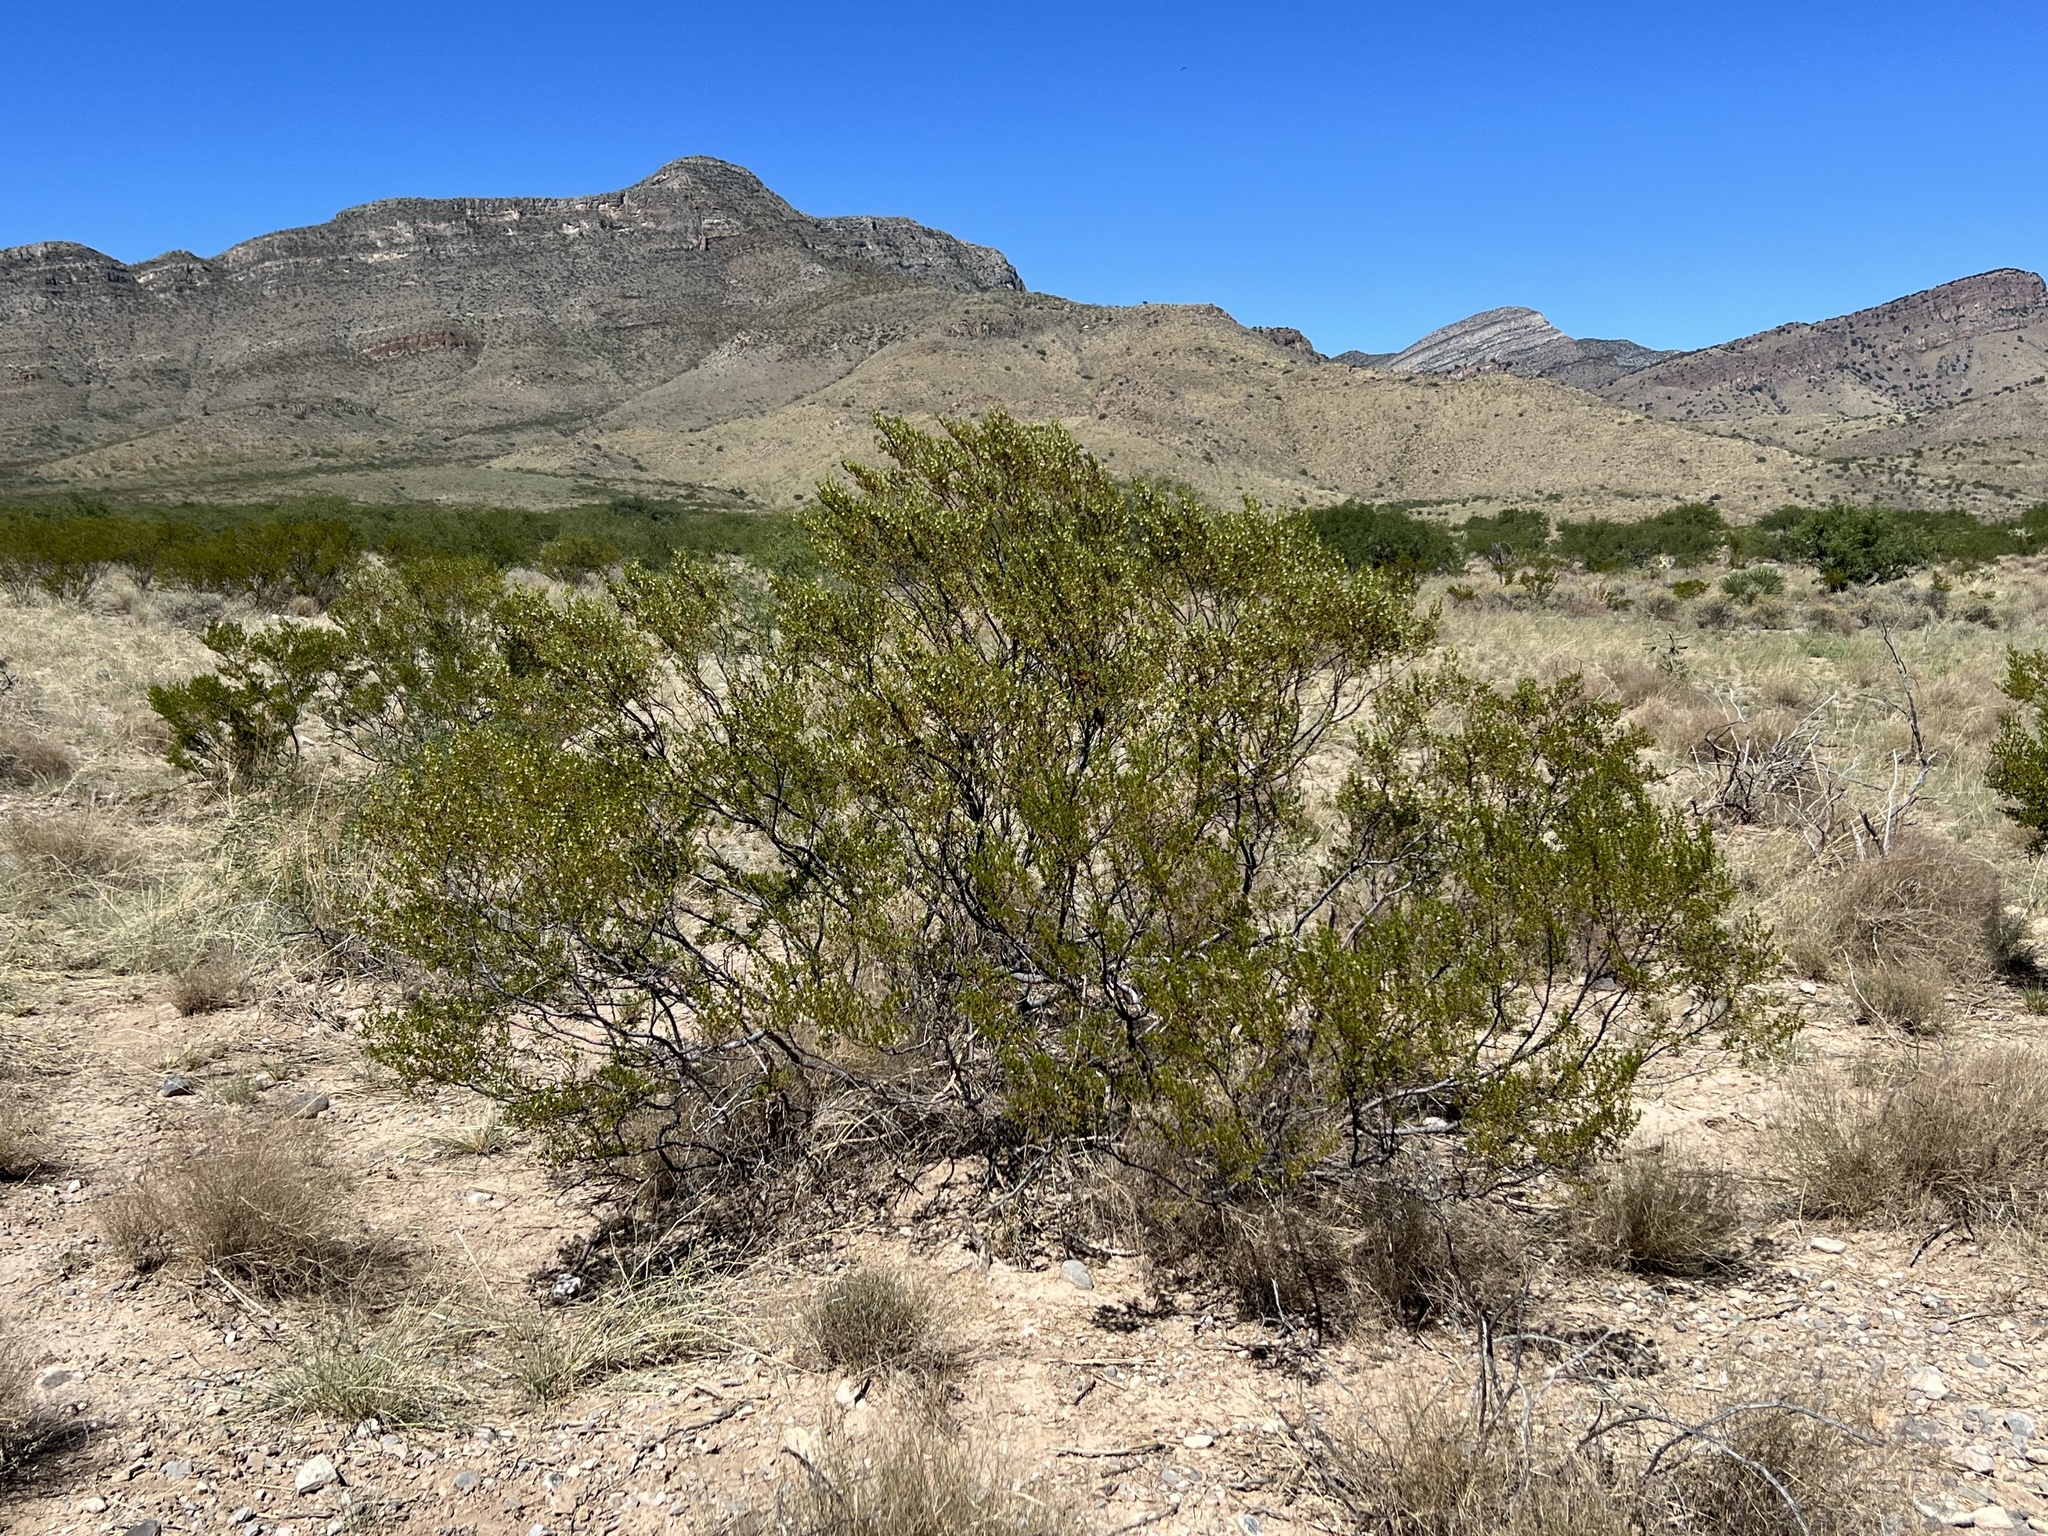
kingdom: Plantae
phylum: Tracheophyta
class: Magnoliopsida
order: Zygophyllales
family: Zygophyllaceae
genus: Larrea
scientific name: Larrea tridentata
